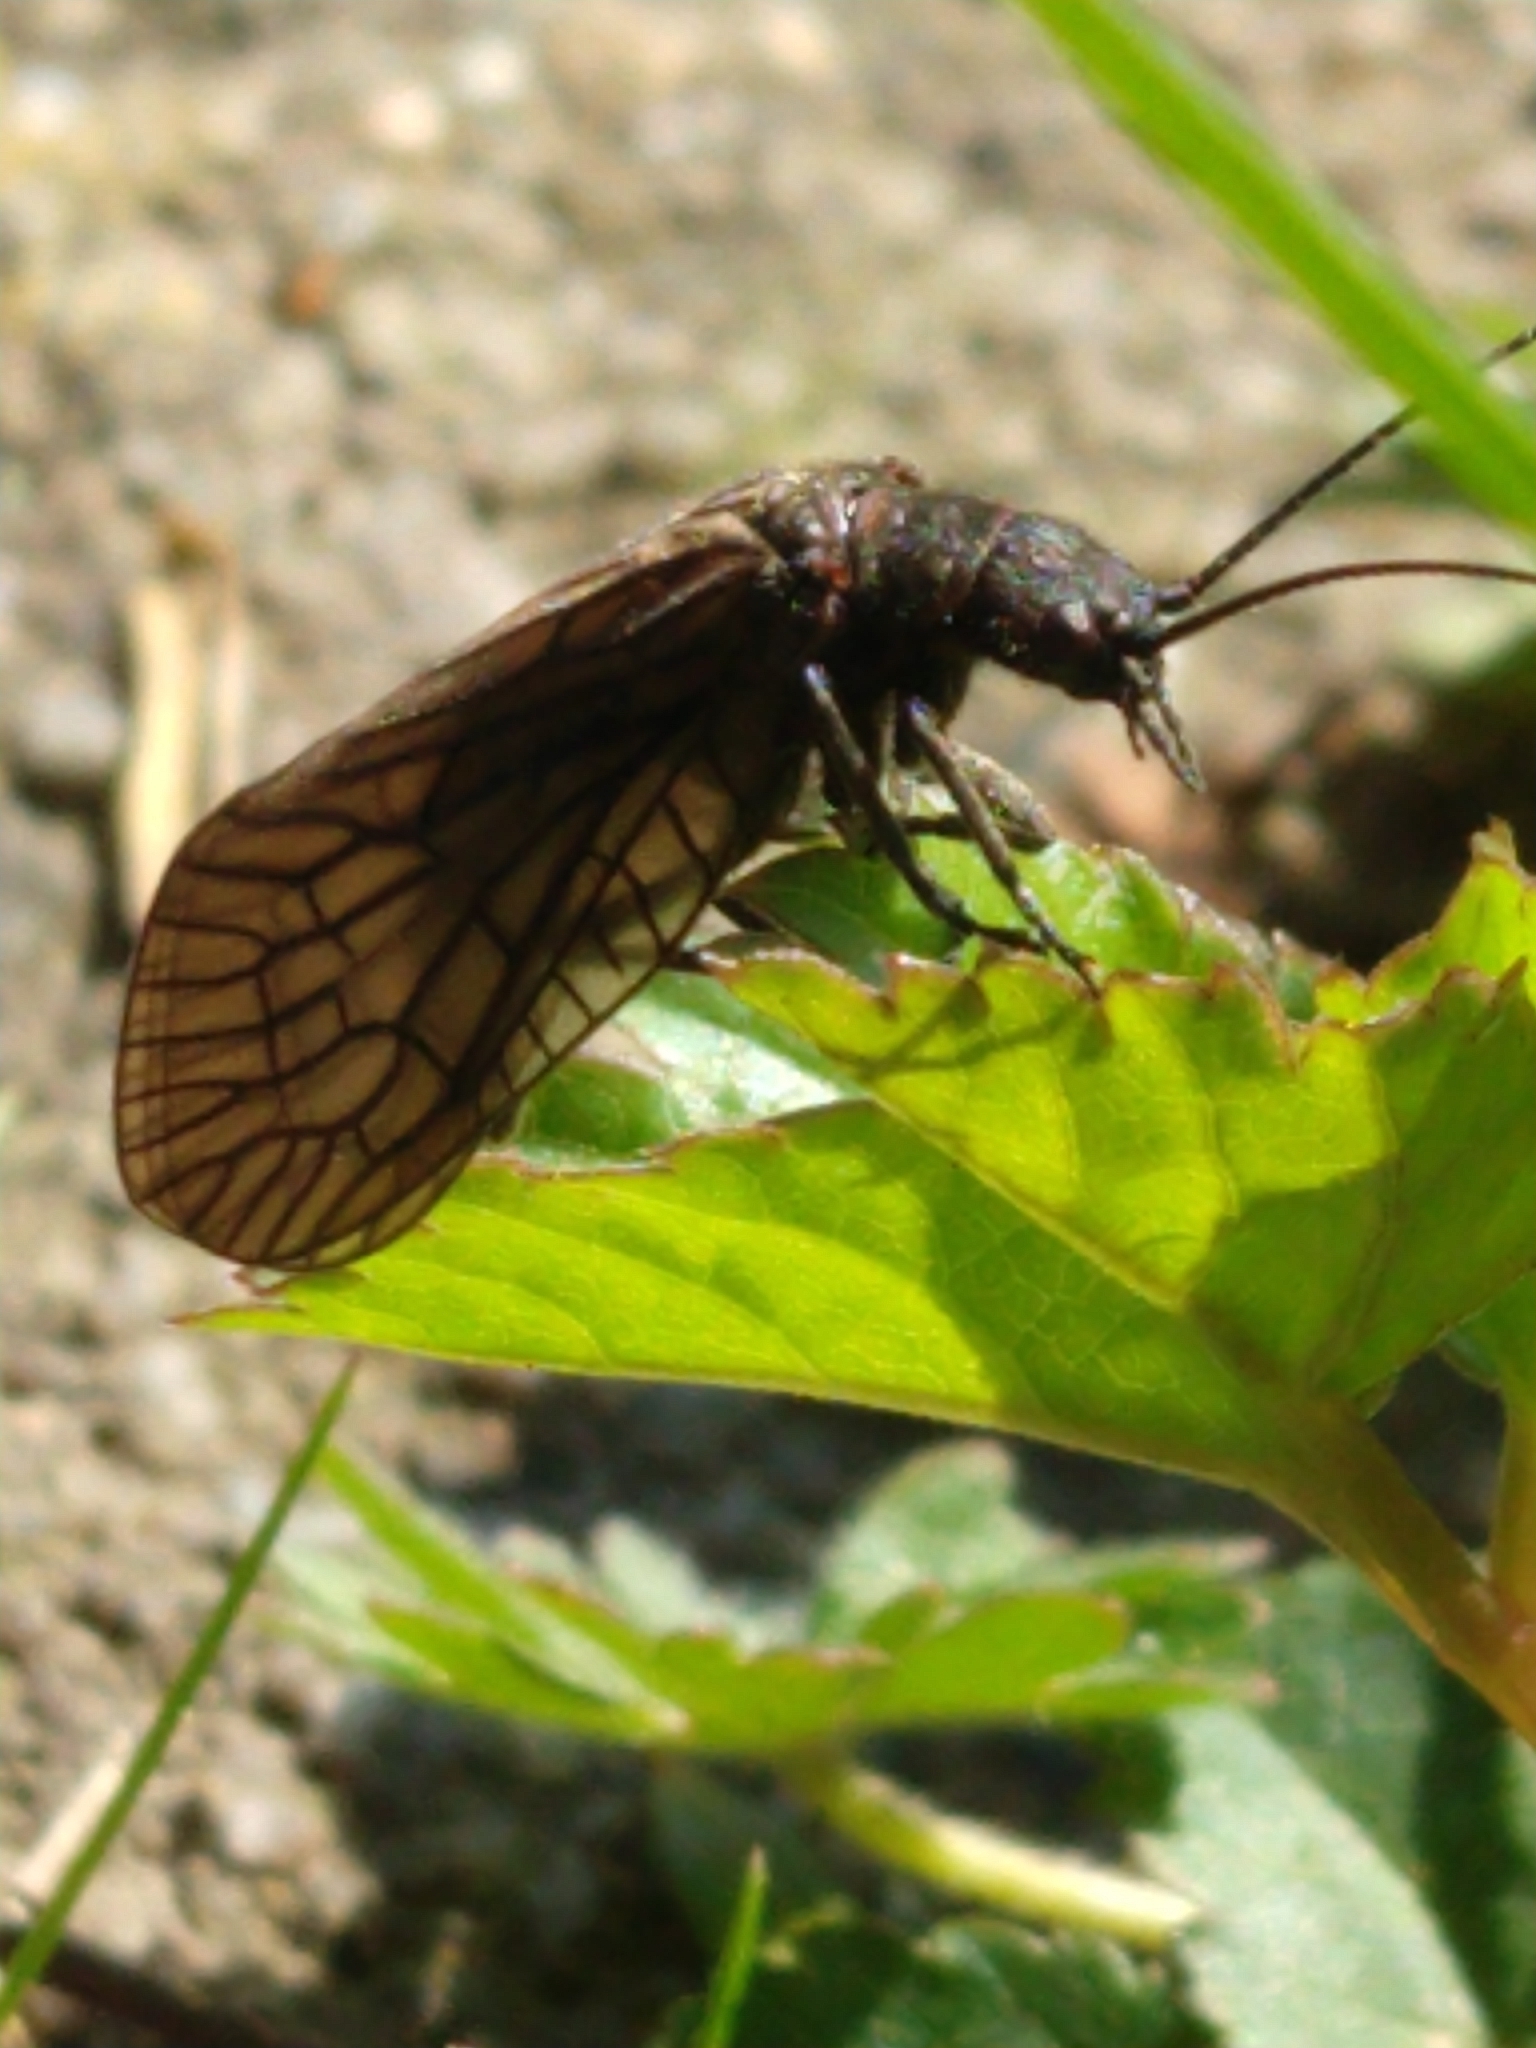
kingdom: Animalia
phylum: Arthropoda
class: Insecta
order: Megaloptera
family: Sialidae
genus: Sialis
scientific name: Sialis
